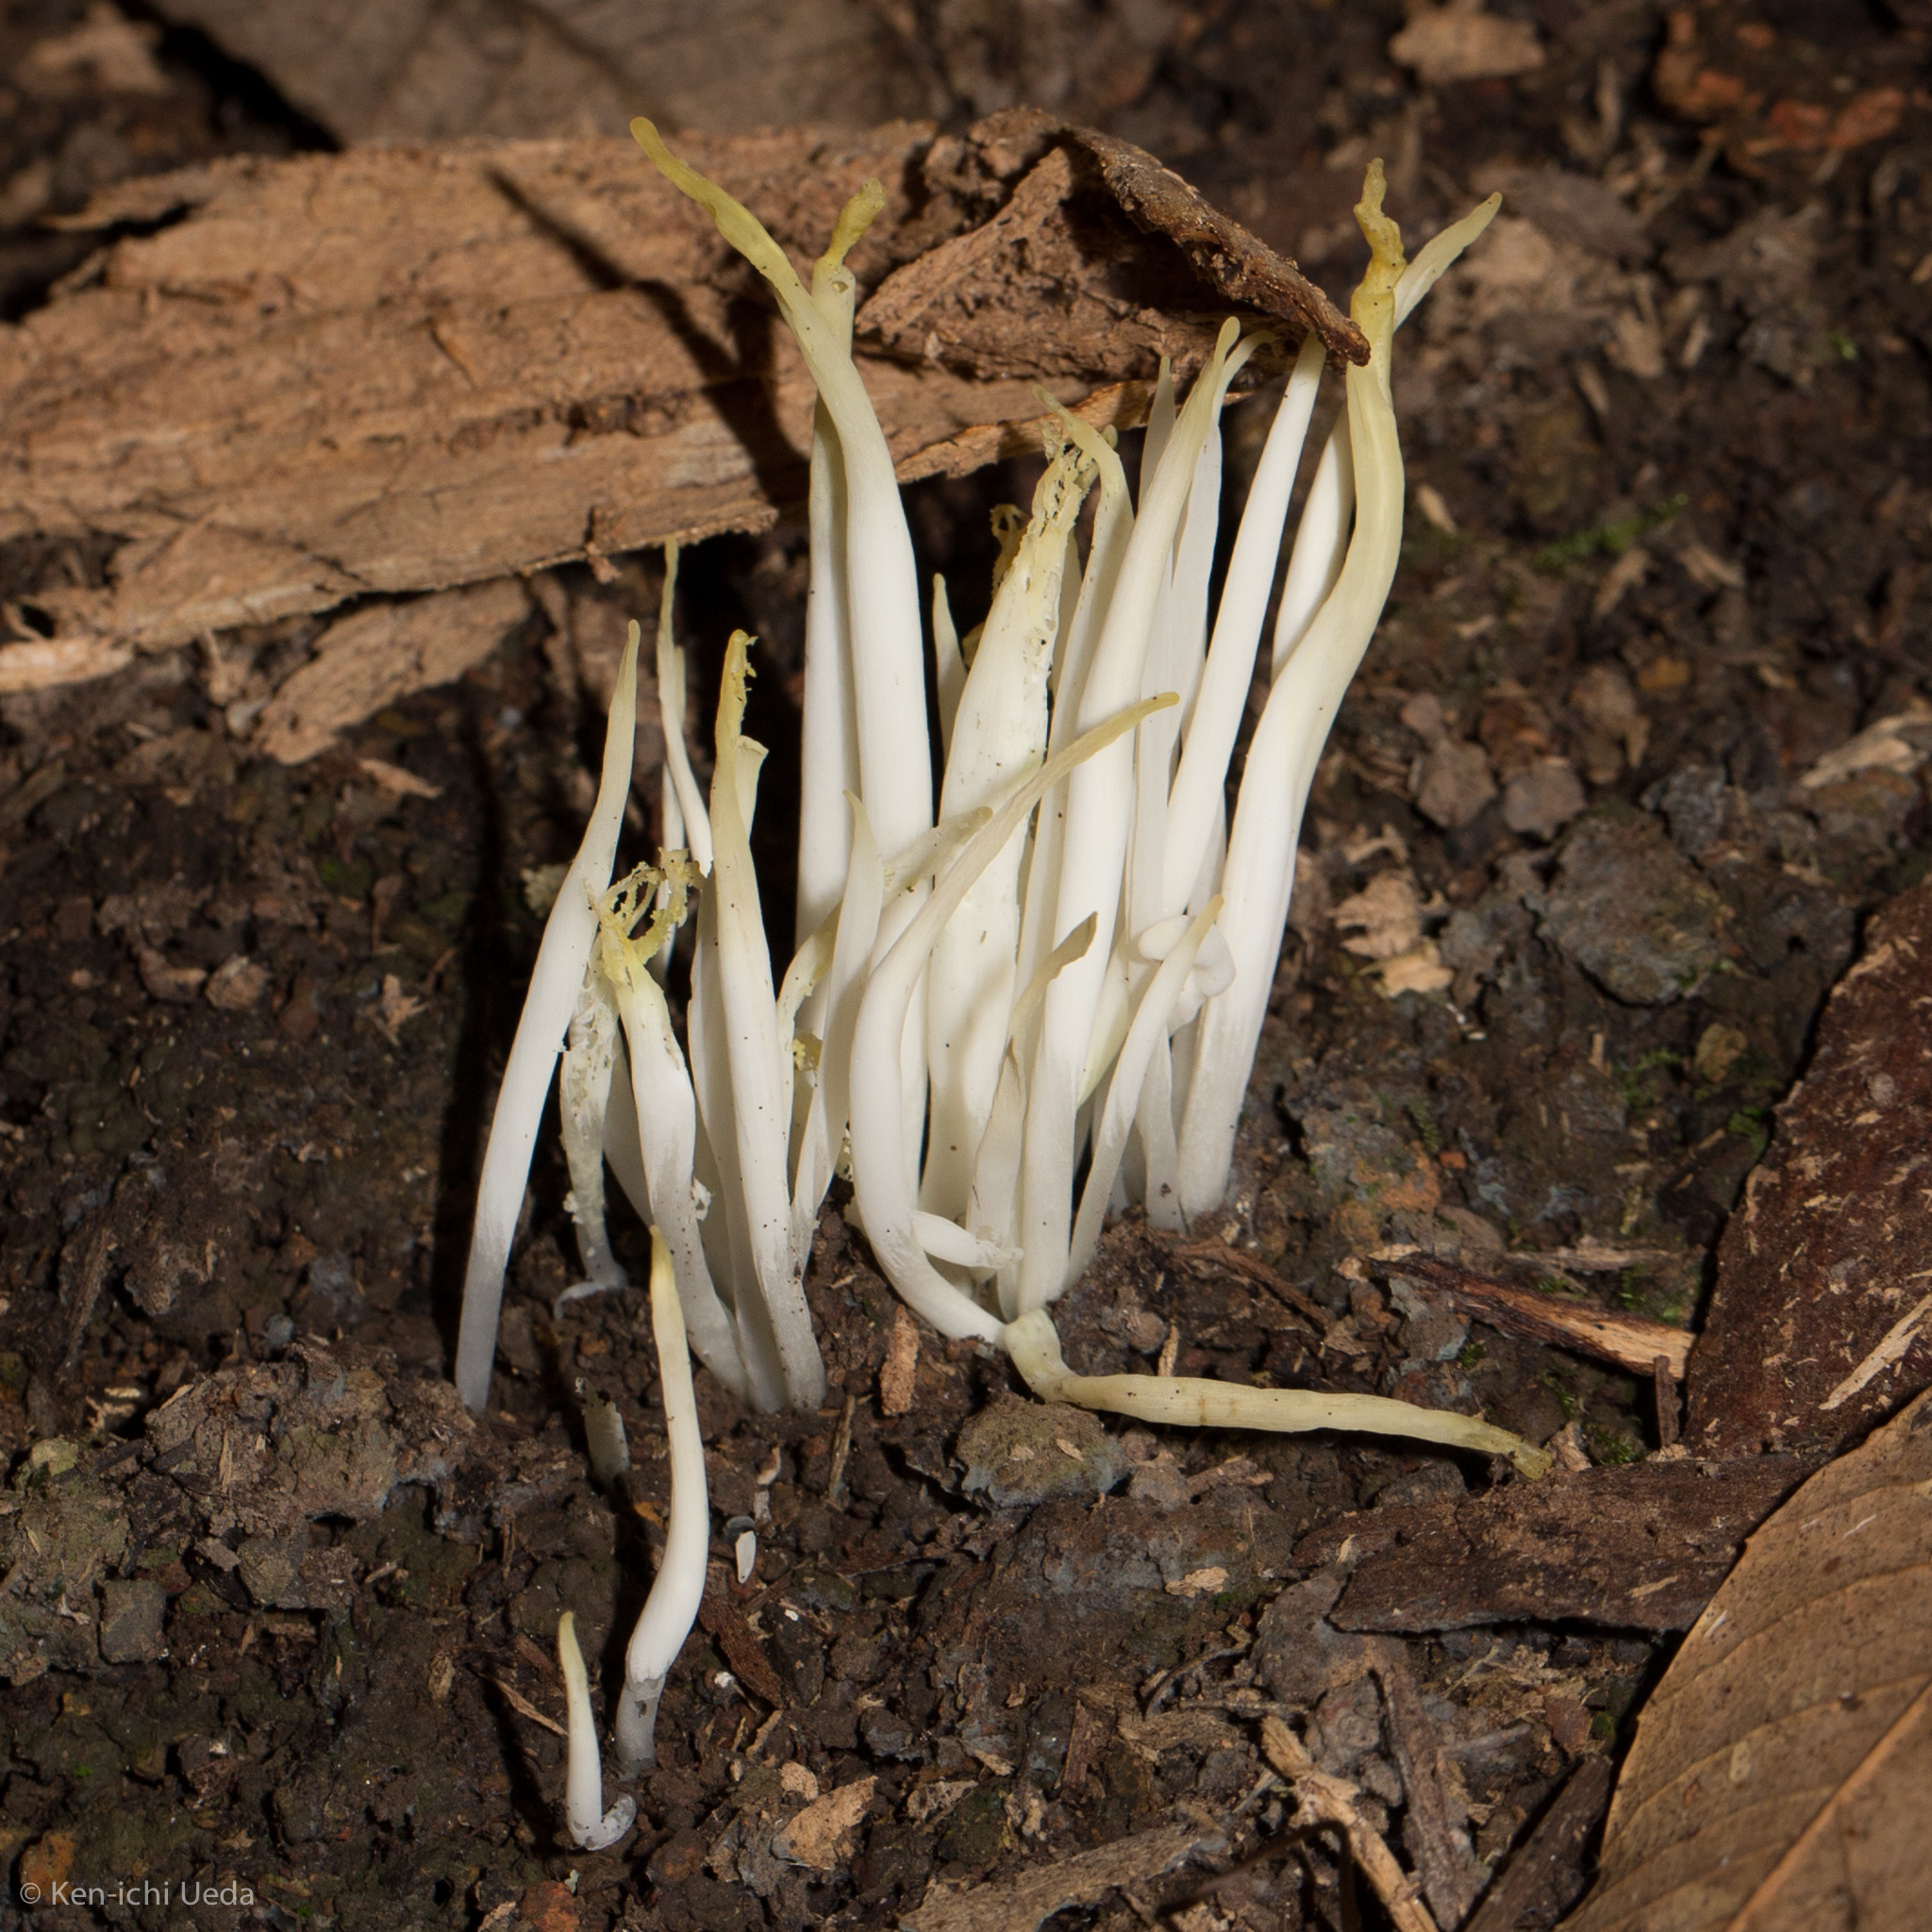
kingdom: Fungi
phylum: Basidiomycota
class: Agaricomycetes
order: Agaricales
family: Clavariaceae
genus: Clavaria
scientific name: Clavaria fragilis
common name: White spindles
